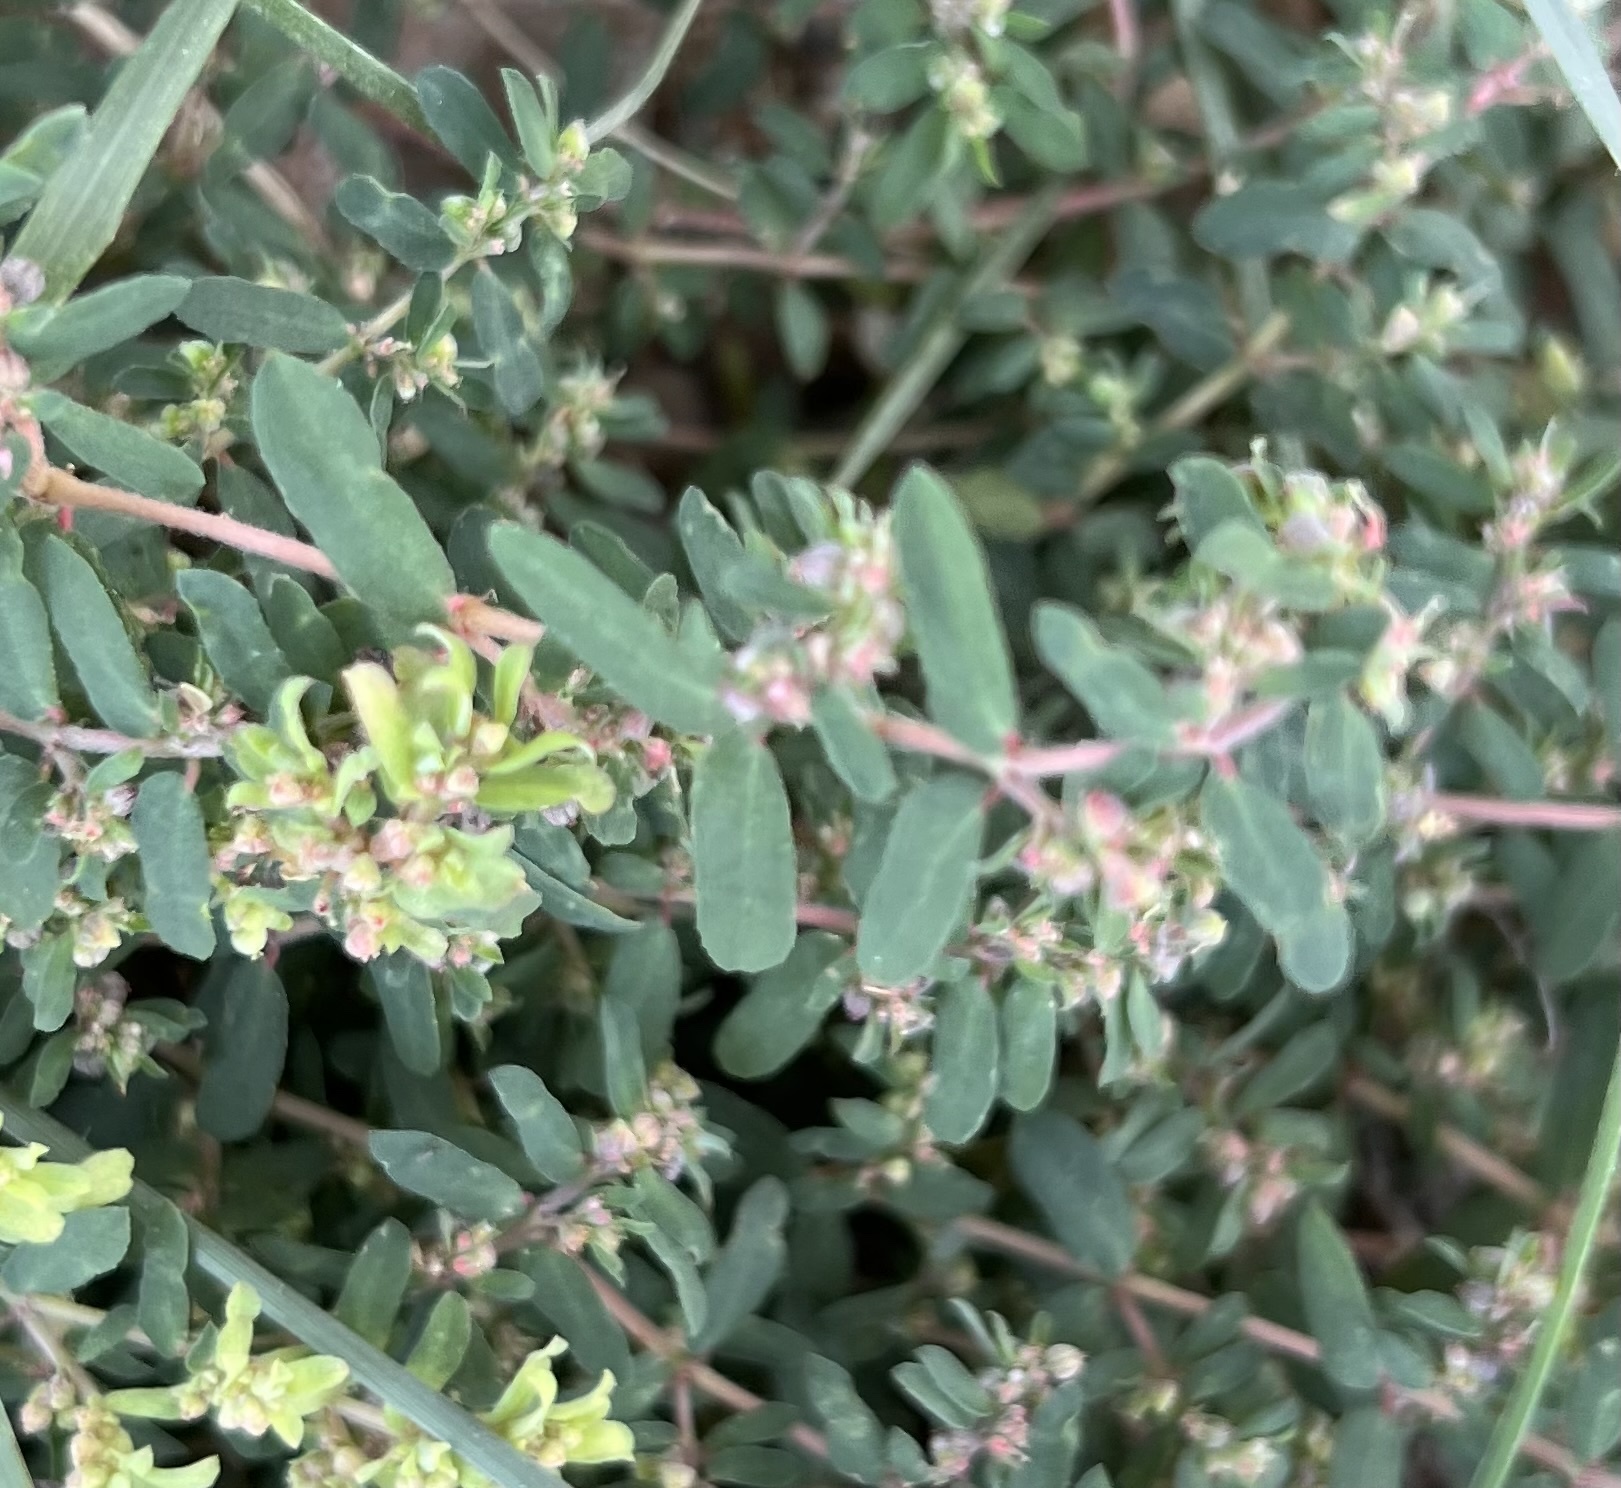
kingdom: Plantae
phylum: Tracheophyta
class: Magnoliopsida
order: Malpighiales
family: Euphorbiaceae
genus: Euphorbia
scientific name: Euphorbia maculata
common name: Spotted spurge
